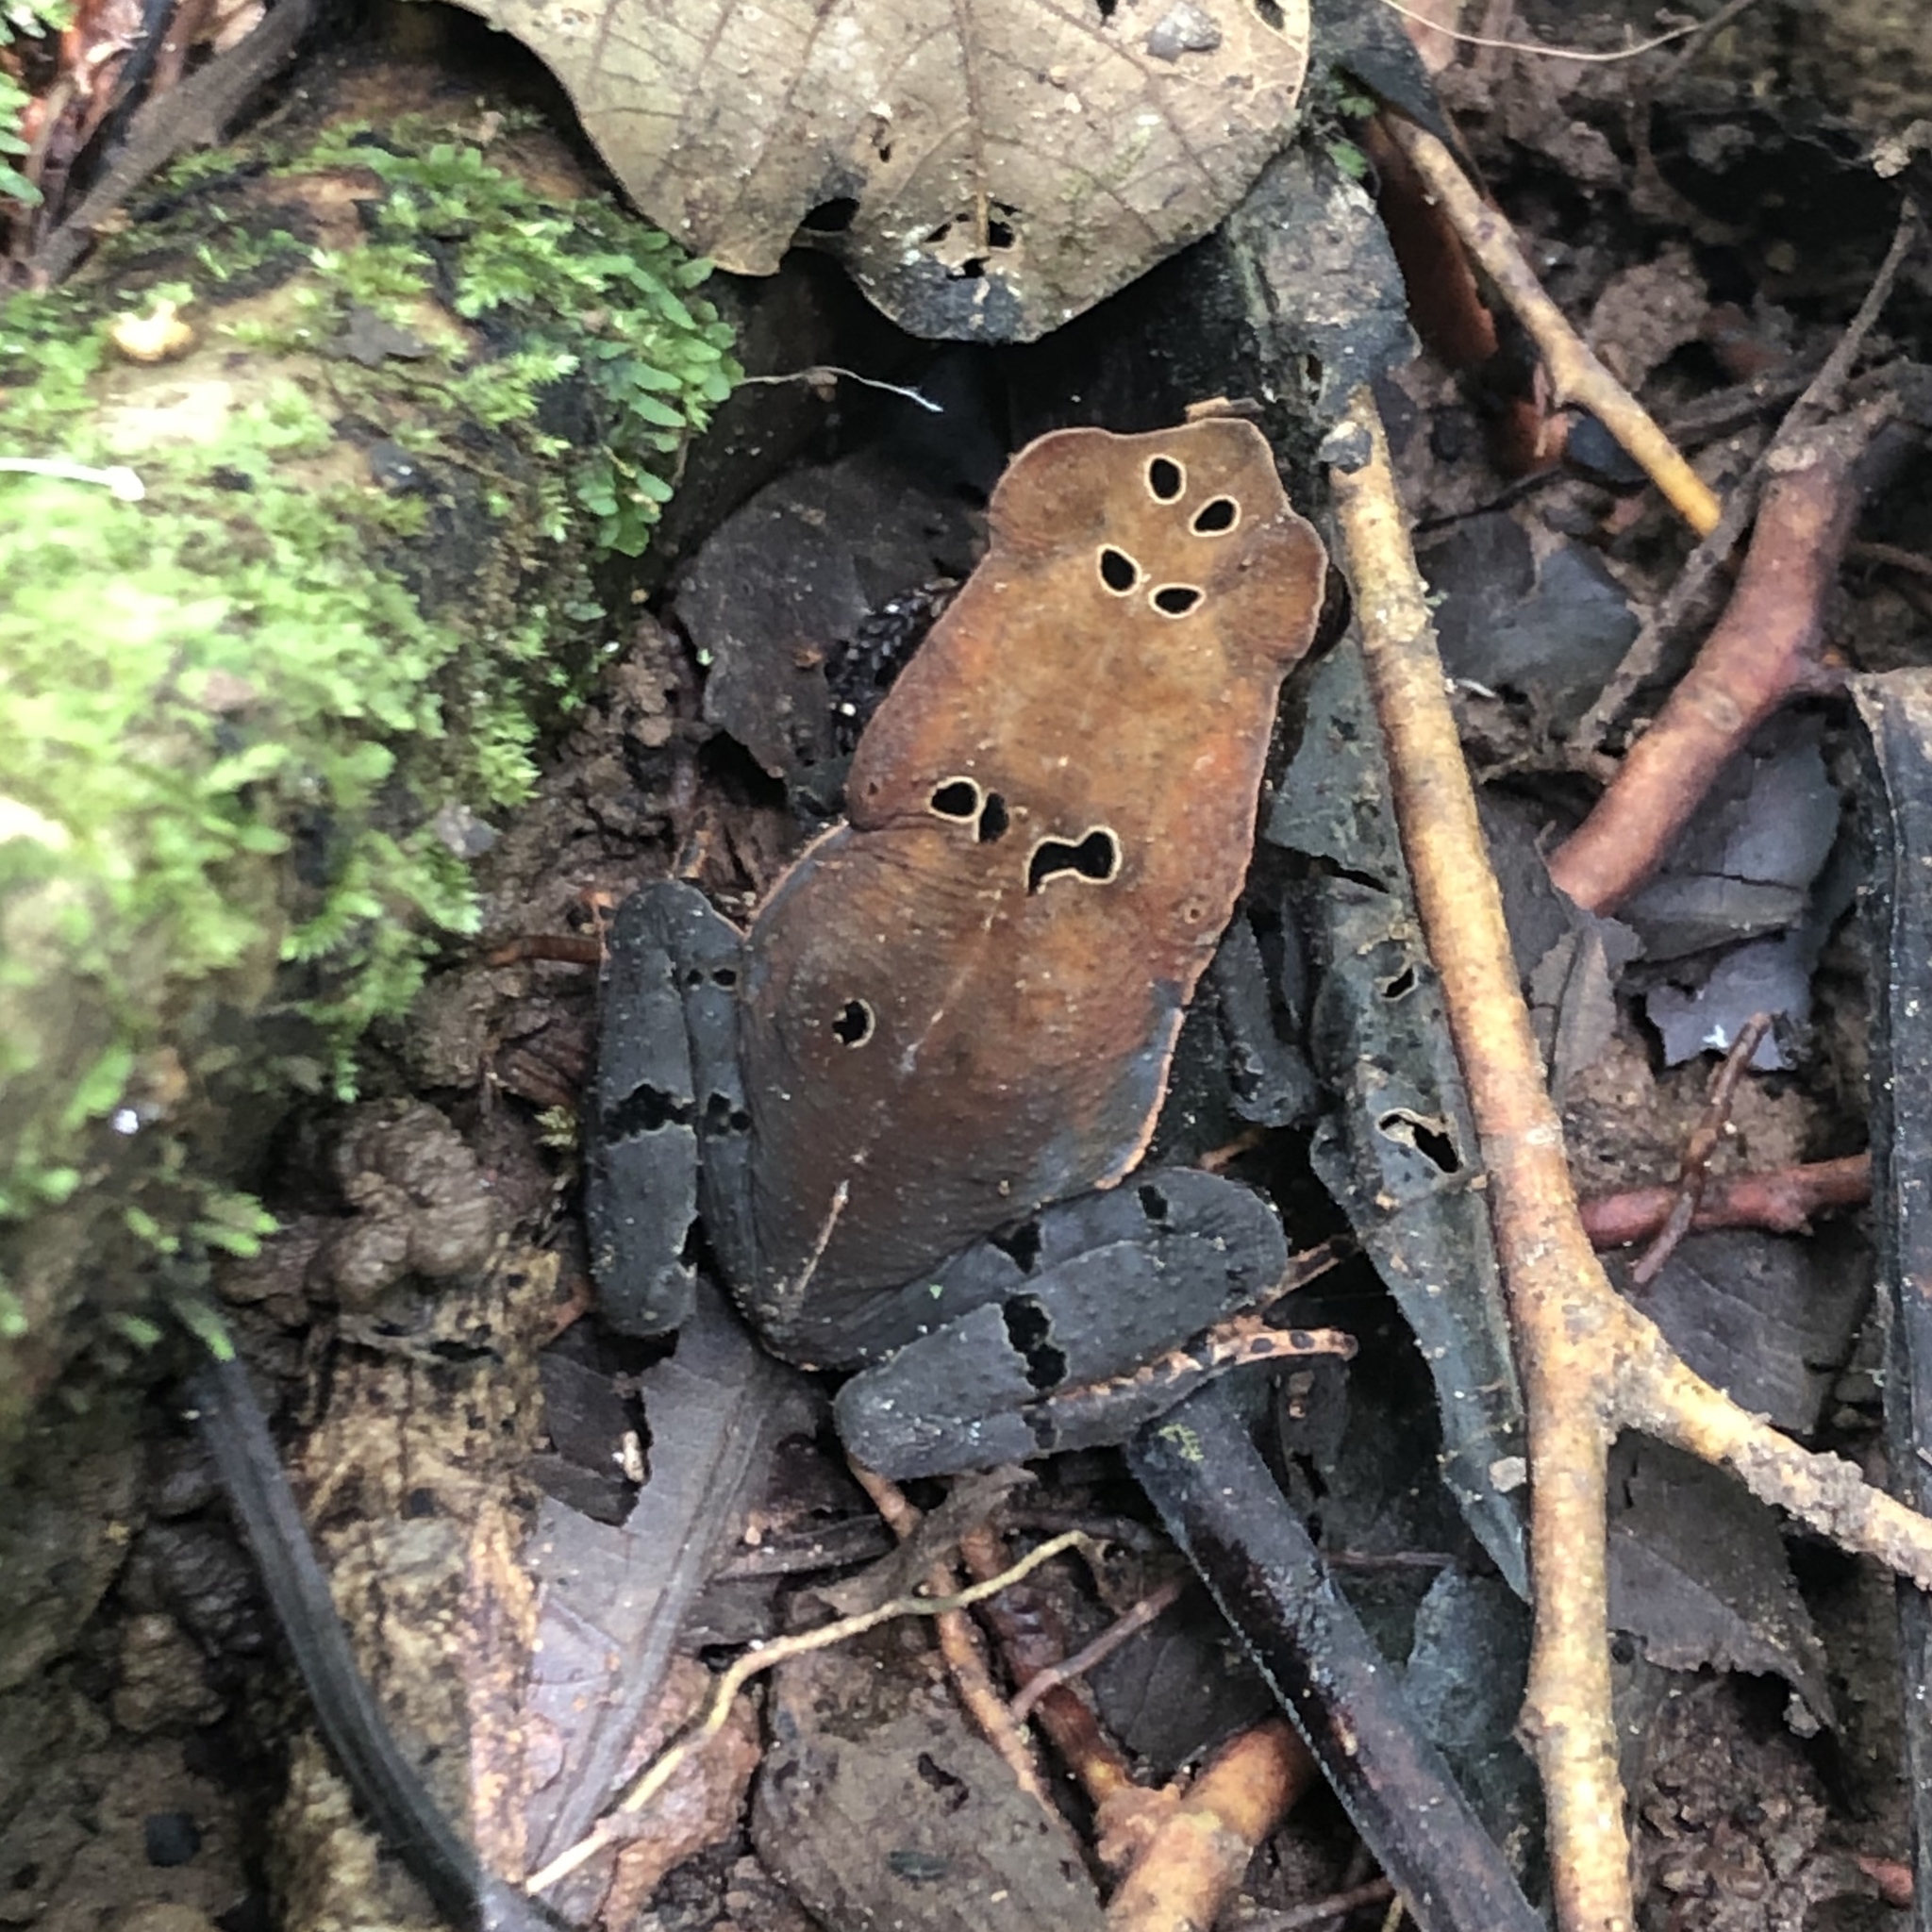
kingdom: Animalia
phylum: Chordata
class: Amphibia
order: Anura
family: Bufonidae
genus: Rhaebo
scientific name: Rhaebo haematiticus
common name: Truando toad
